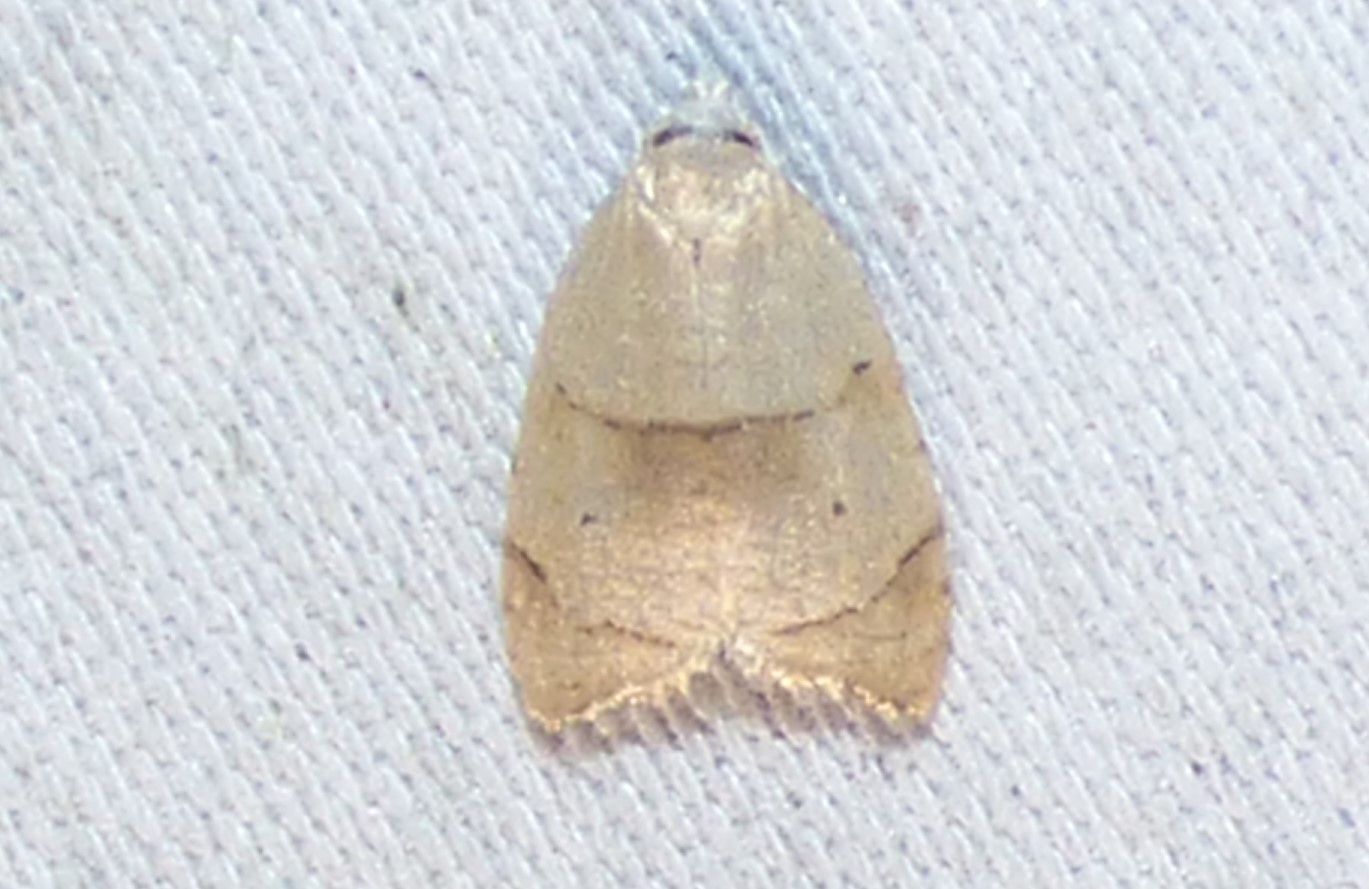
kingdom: Animalia
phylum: Arthropoda
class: Insecta
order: Lepidoptera
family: Tortricidae
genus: Coelostathma
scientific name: Coelostathma discopunctana
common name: Batman moth
